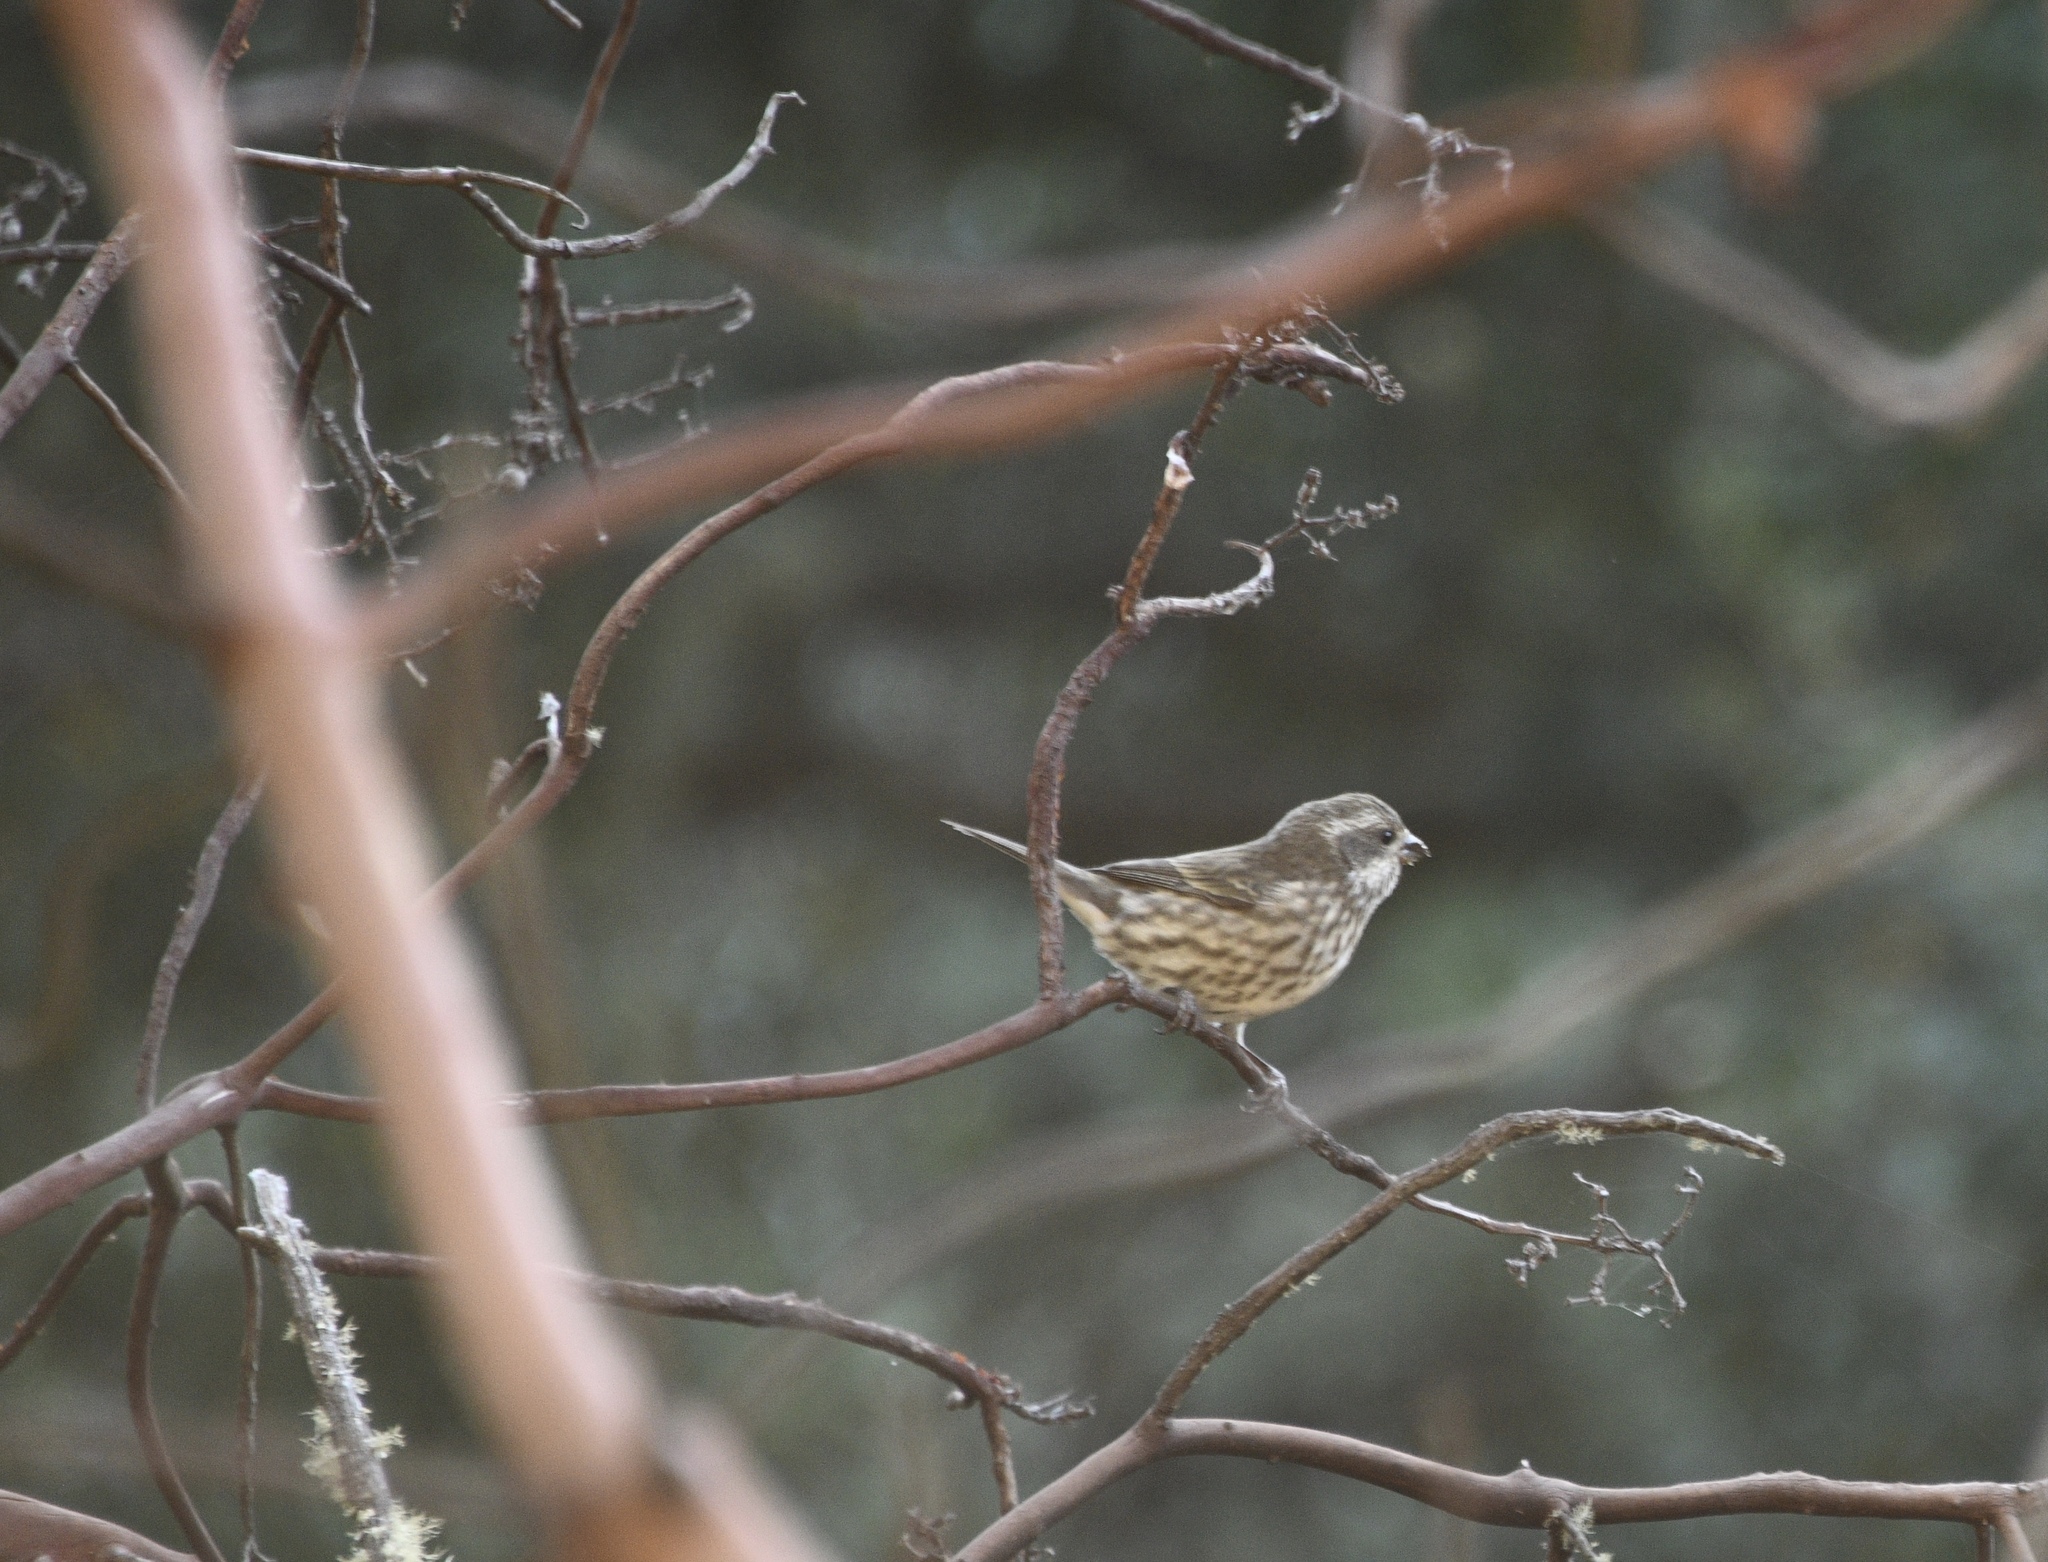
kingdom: Animalia
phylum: Chordata
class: Aves
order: Passeriformes
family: Fringillidae
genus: Haemorhous
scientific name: Haemorhous purpureus
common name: Purple finch
